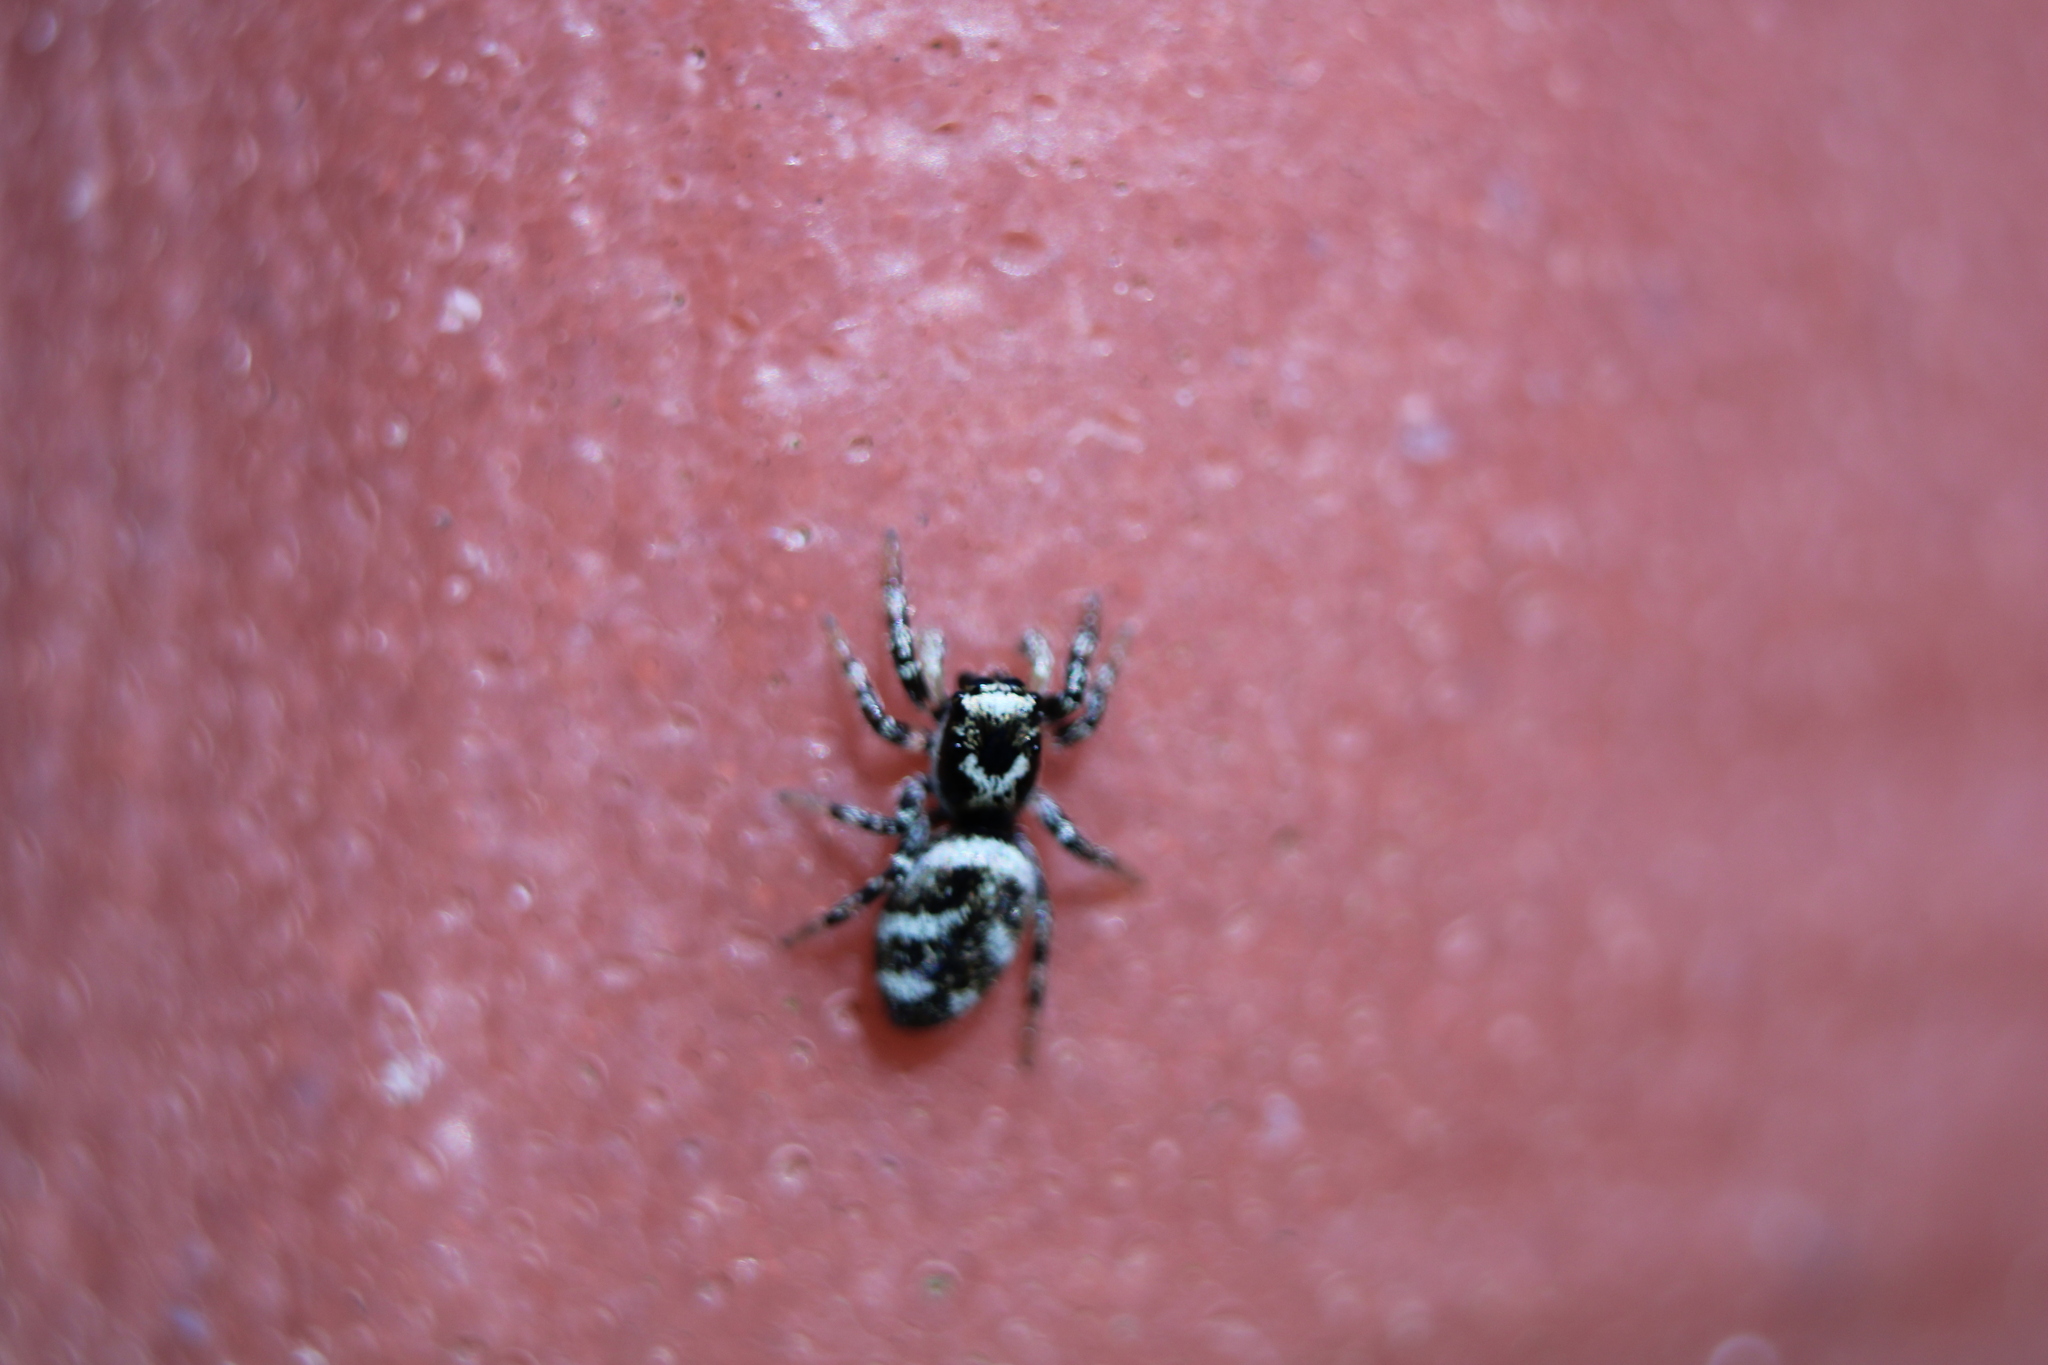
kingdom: Animalia
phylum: Arthropoda
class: Arachnida
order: Araneae
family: Salticidae
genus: Salticus
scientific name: Salticus scenicus
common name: Zebra jumper
